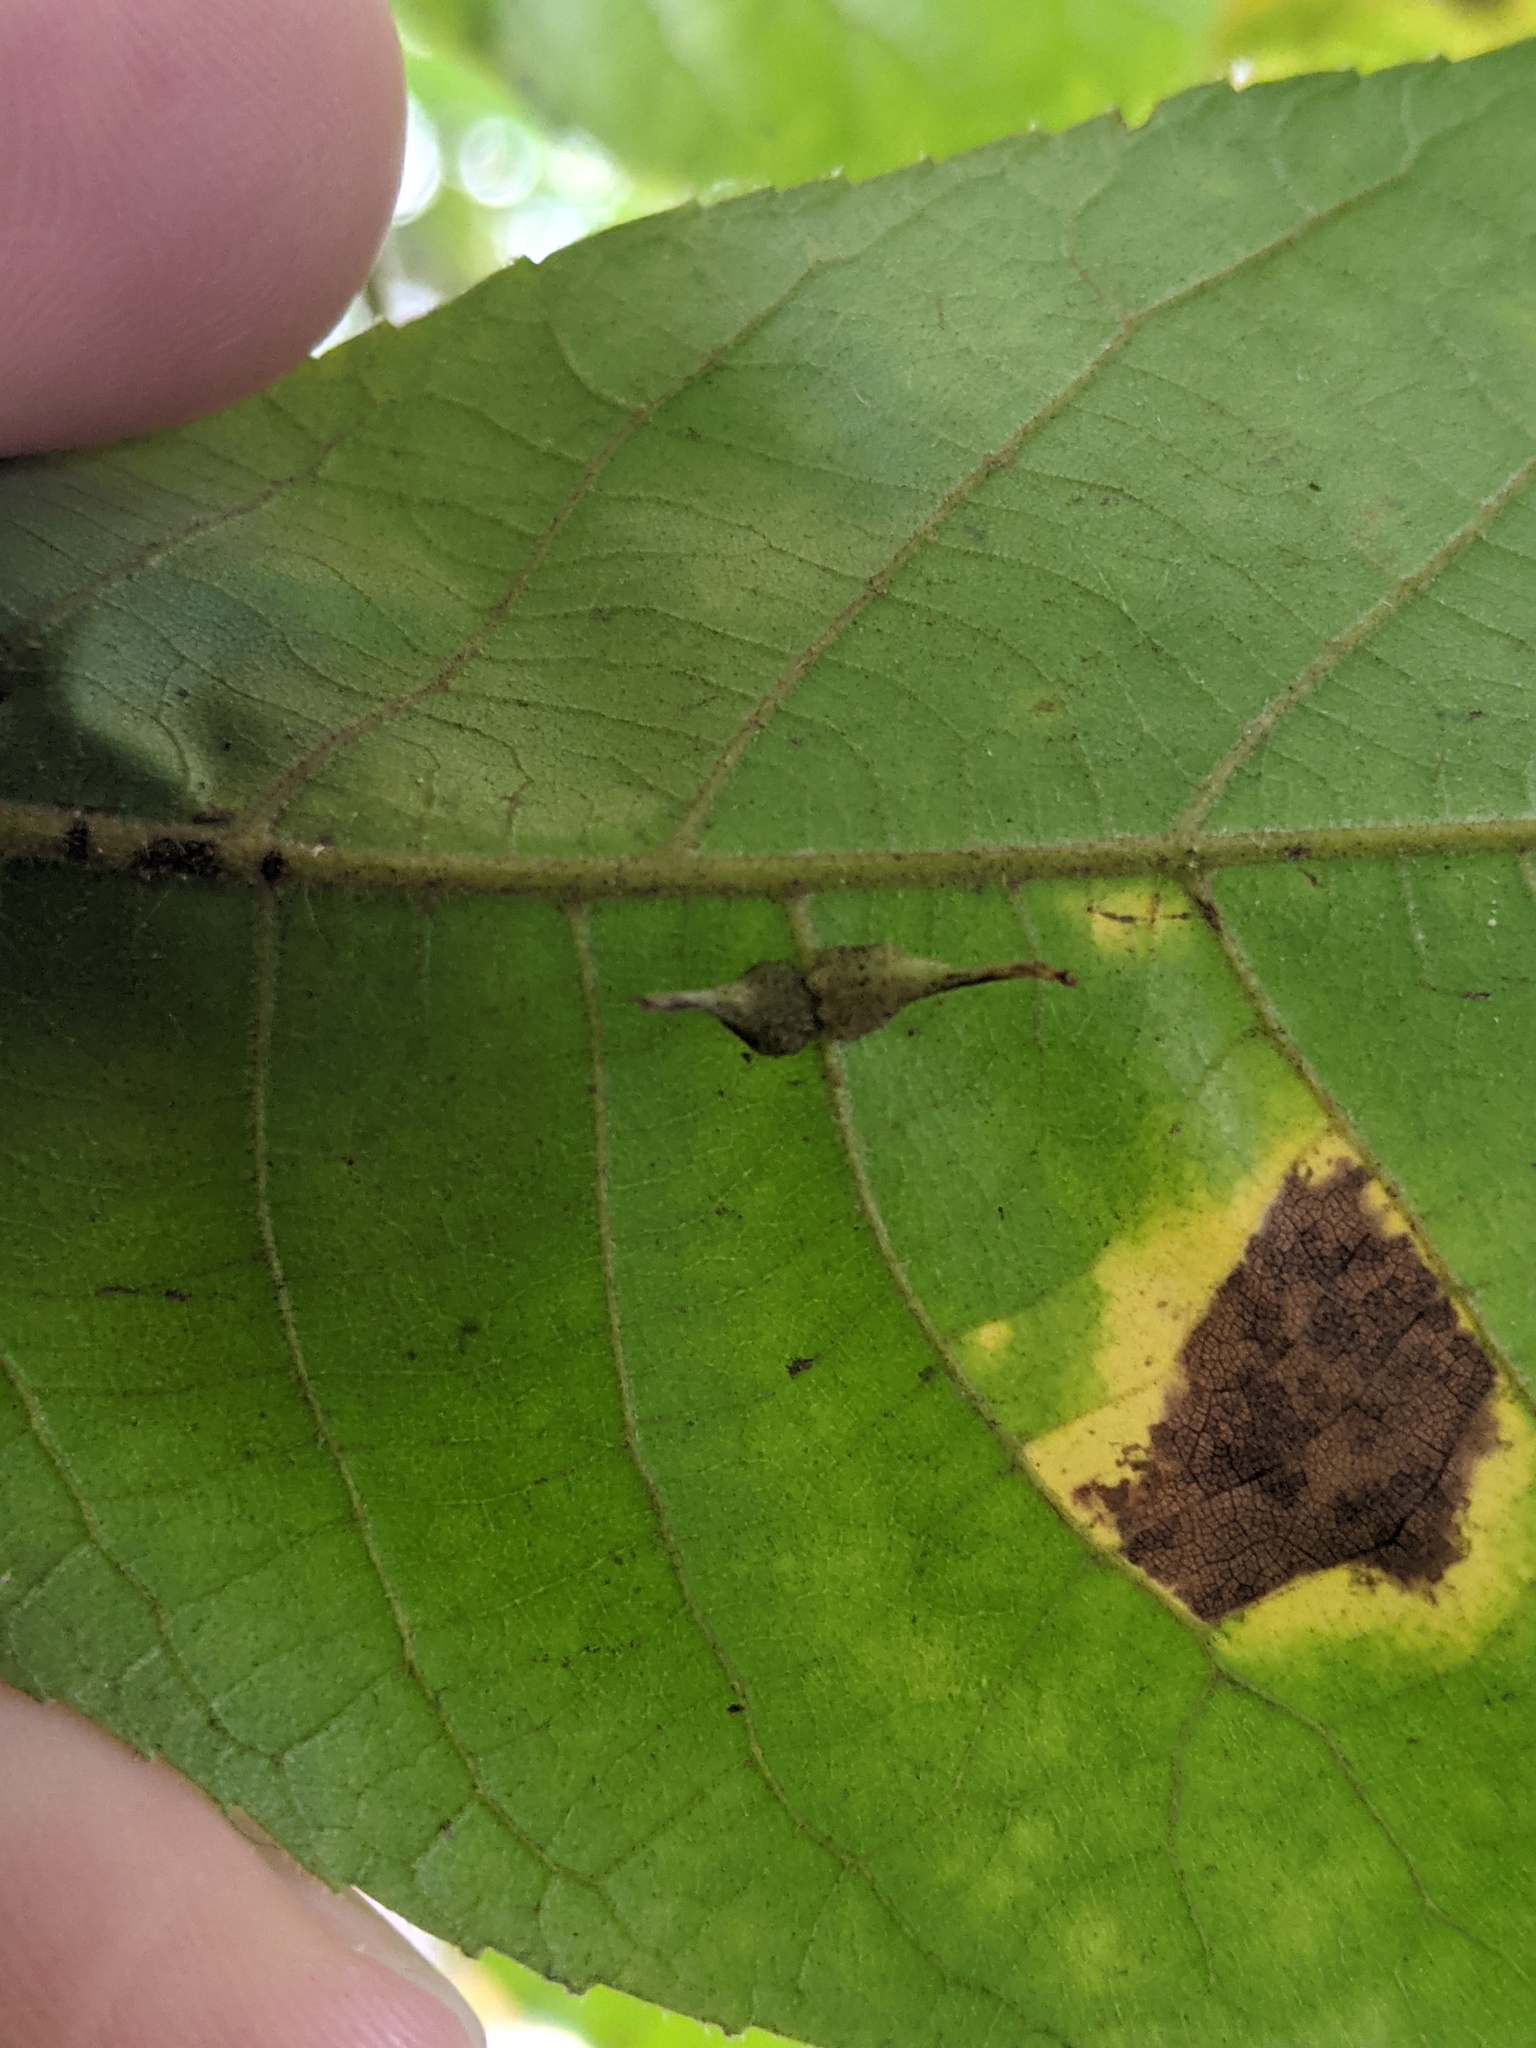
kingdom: Animalia
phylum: Arthropoda
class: Insecta
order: Diptera
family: Cecidomyiidae
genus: Caryomyia
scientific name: Caryomyia inclinata
